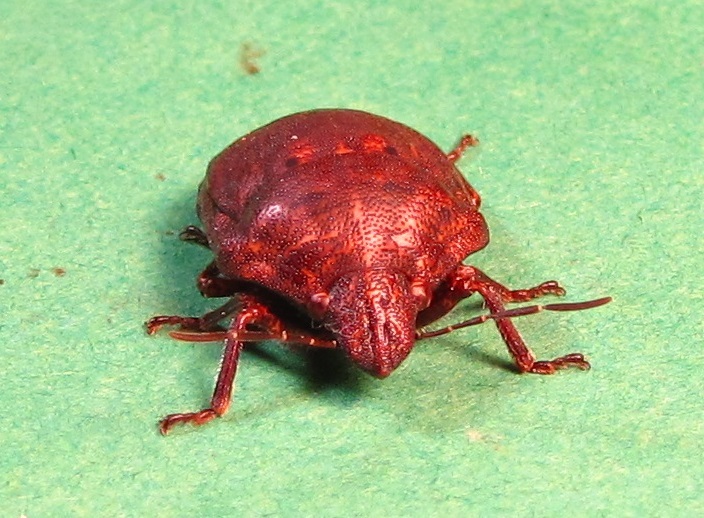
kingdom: Animalia
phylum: Arthropoda
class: Insecta
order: Hemiptera
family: Scutelleridae
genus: Tetyra
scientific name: Tetyra bipunctata
